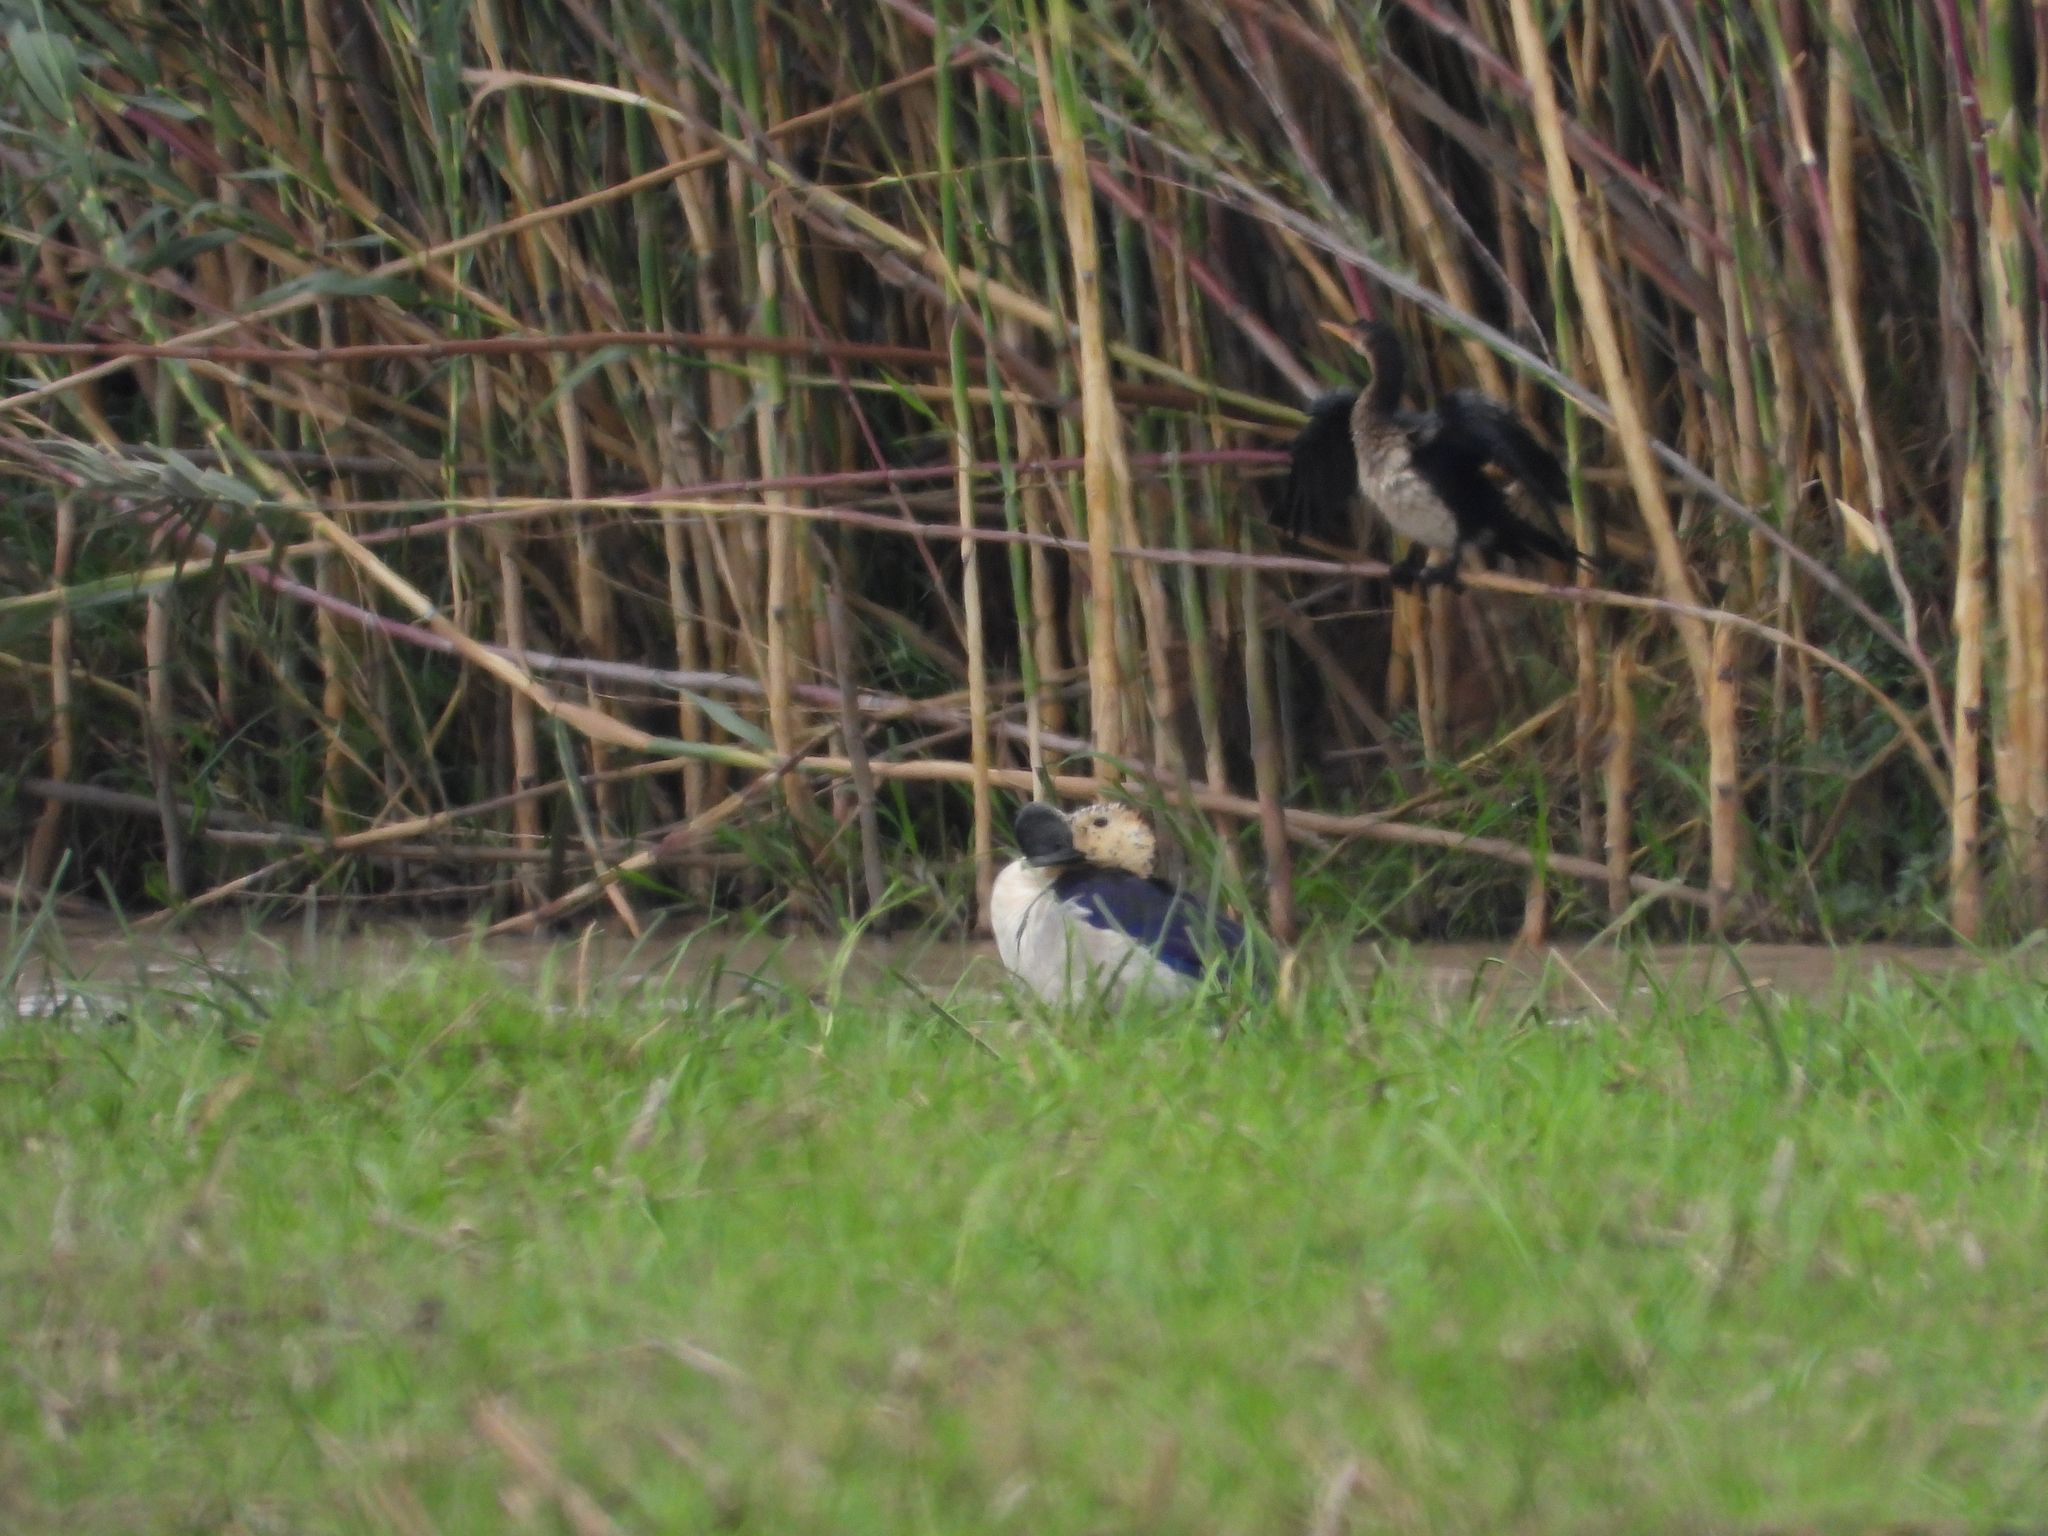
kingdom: Animalia
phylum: Chordata
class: Aves
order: Anseriformes
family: Anatidae
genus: Sarkidiornis
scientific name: Sarkidiornis melanotos
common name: Comb duck
